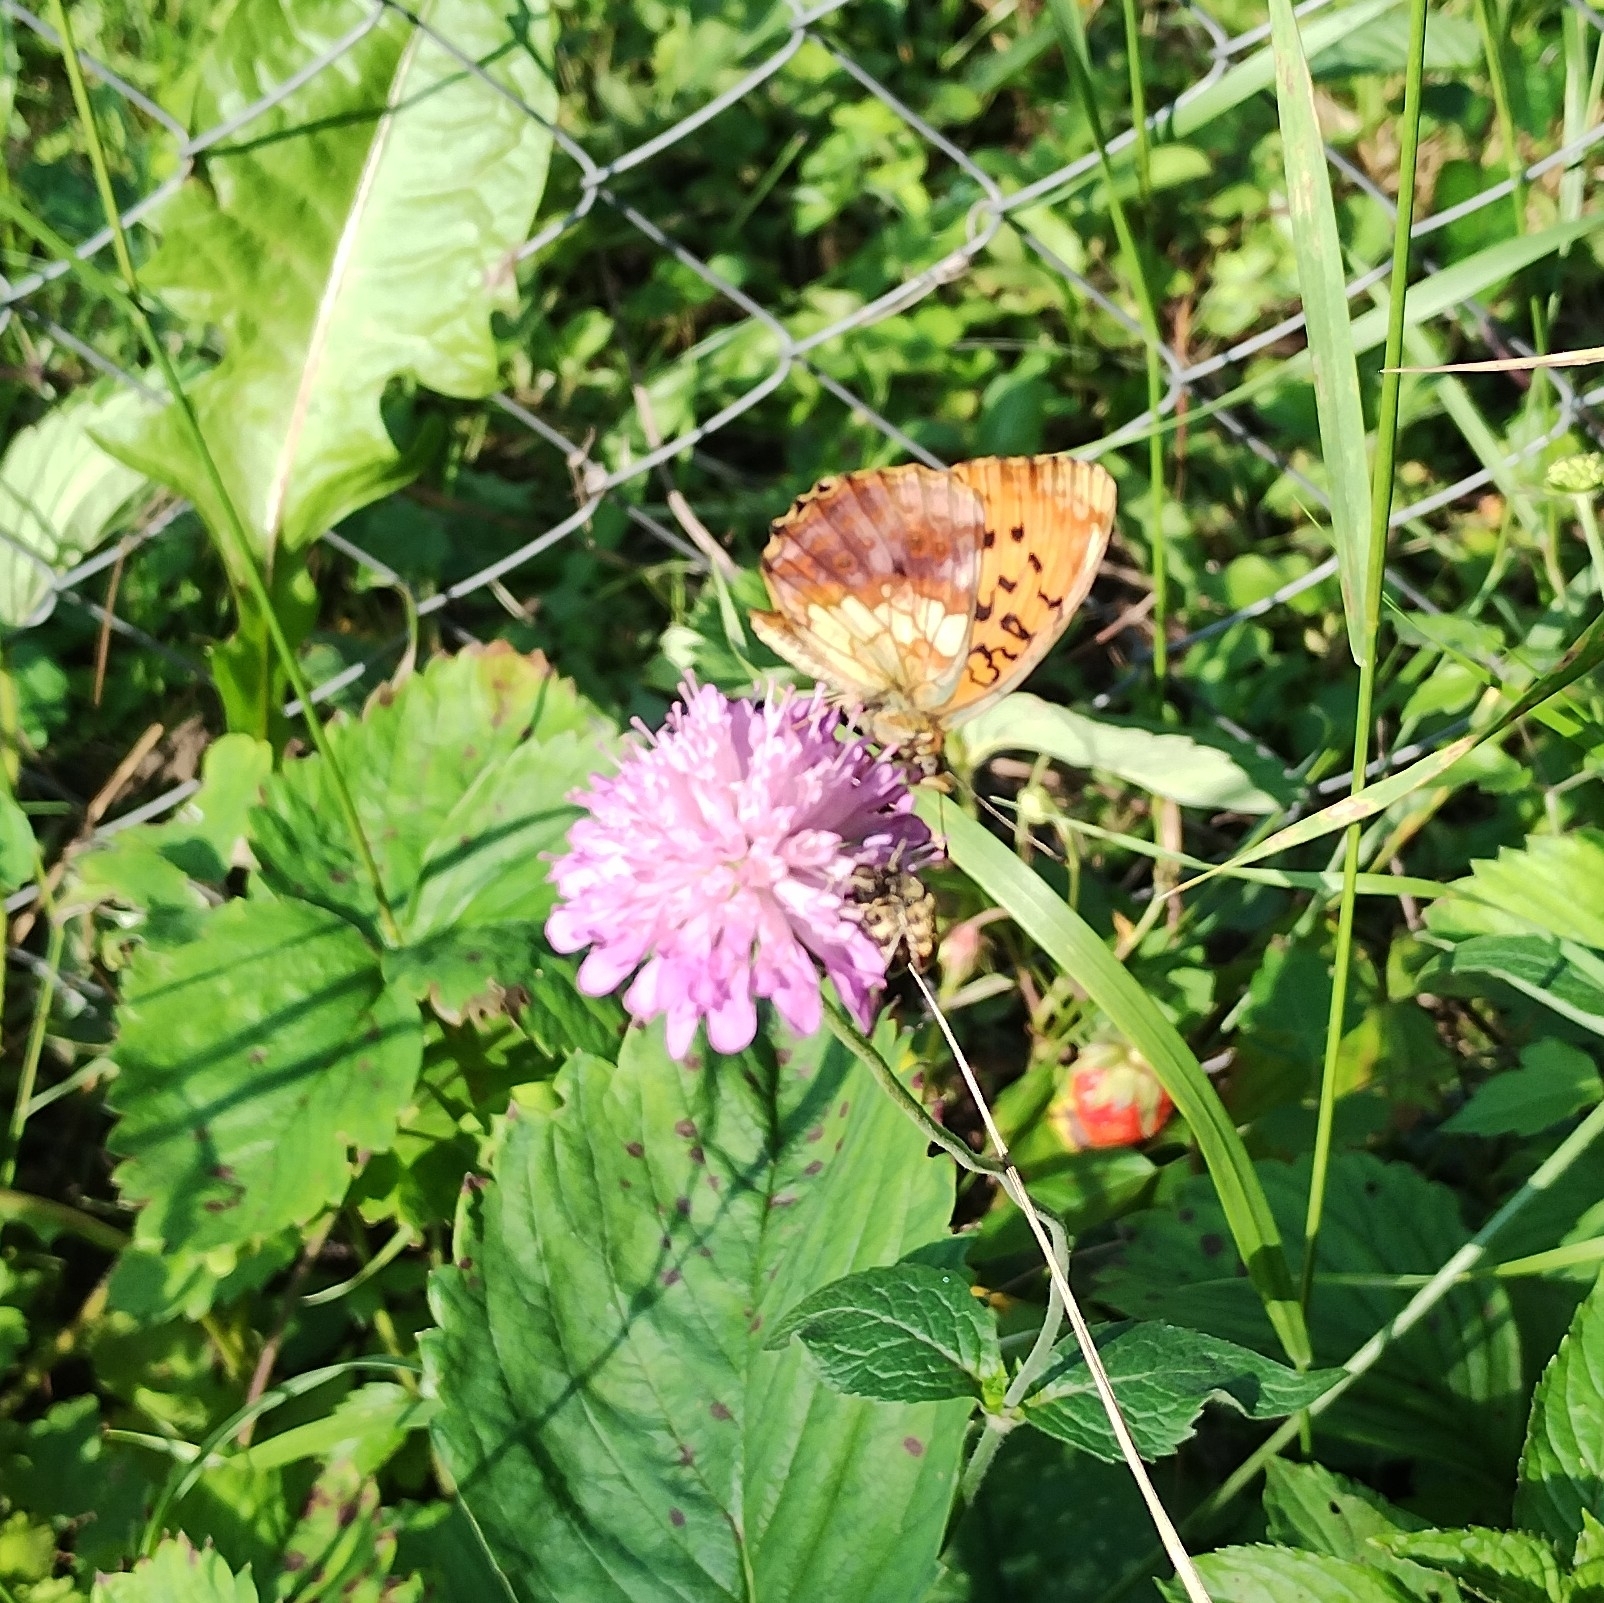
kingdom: Animalia
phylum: Arthropoda
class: Insecta
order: Lepidoptera
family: Nymphalidae
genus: Brenthis
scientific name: Brenthis daphne
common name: Marbled fritillary
